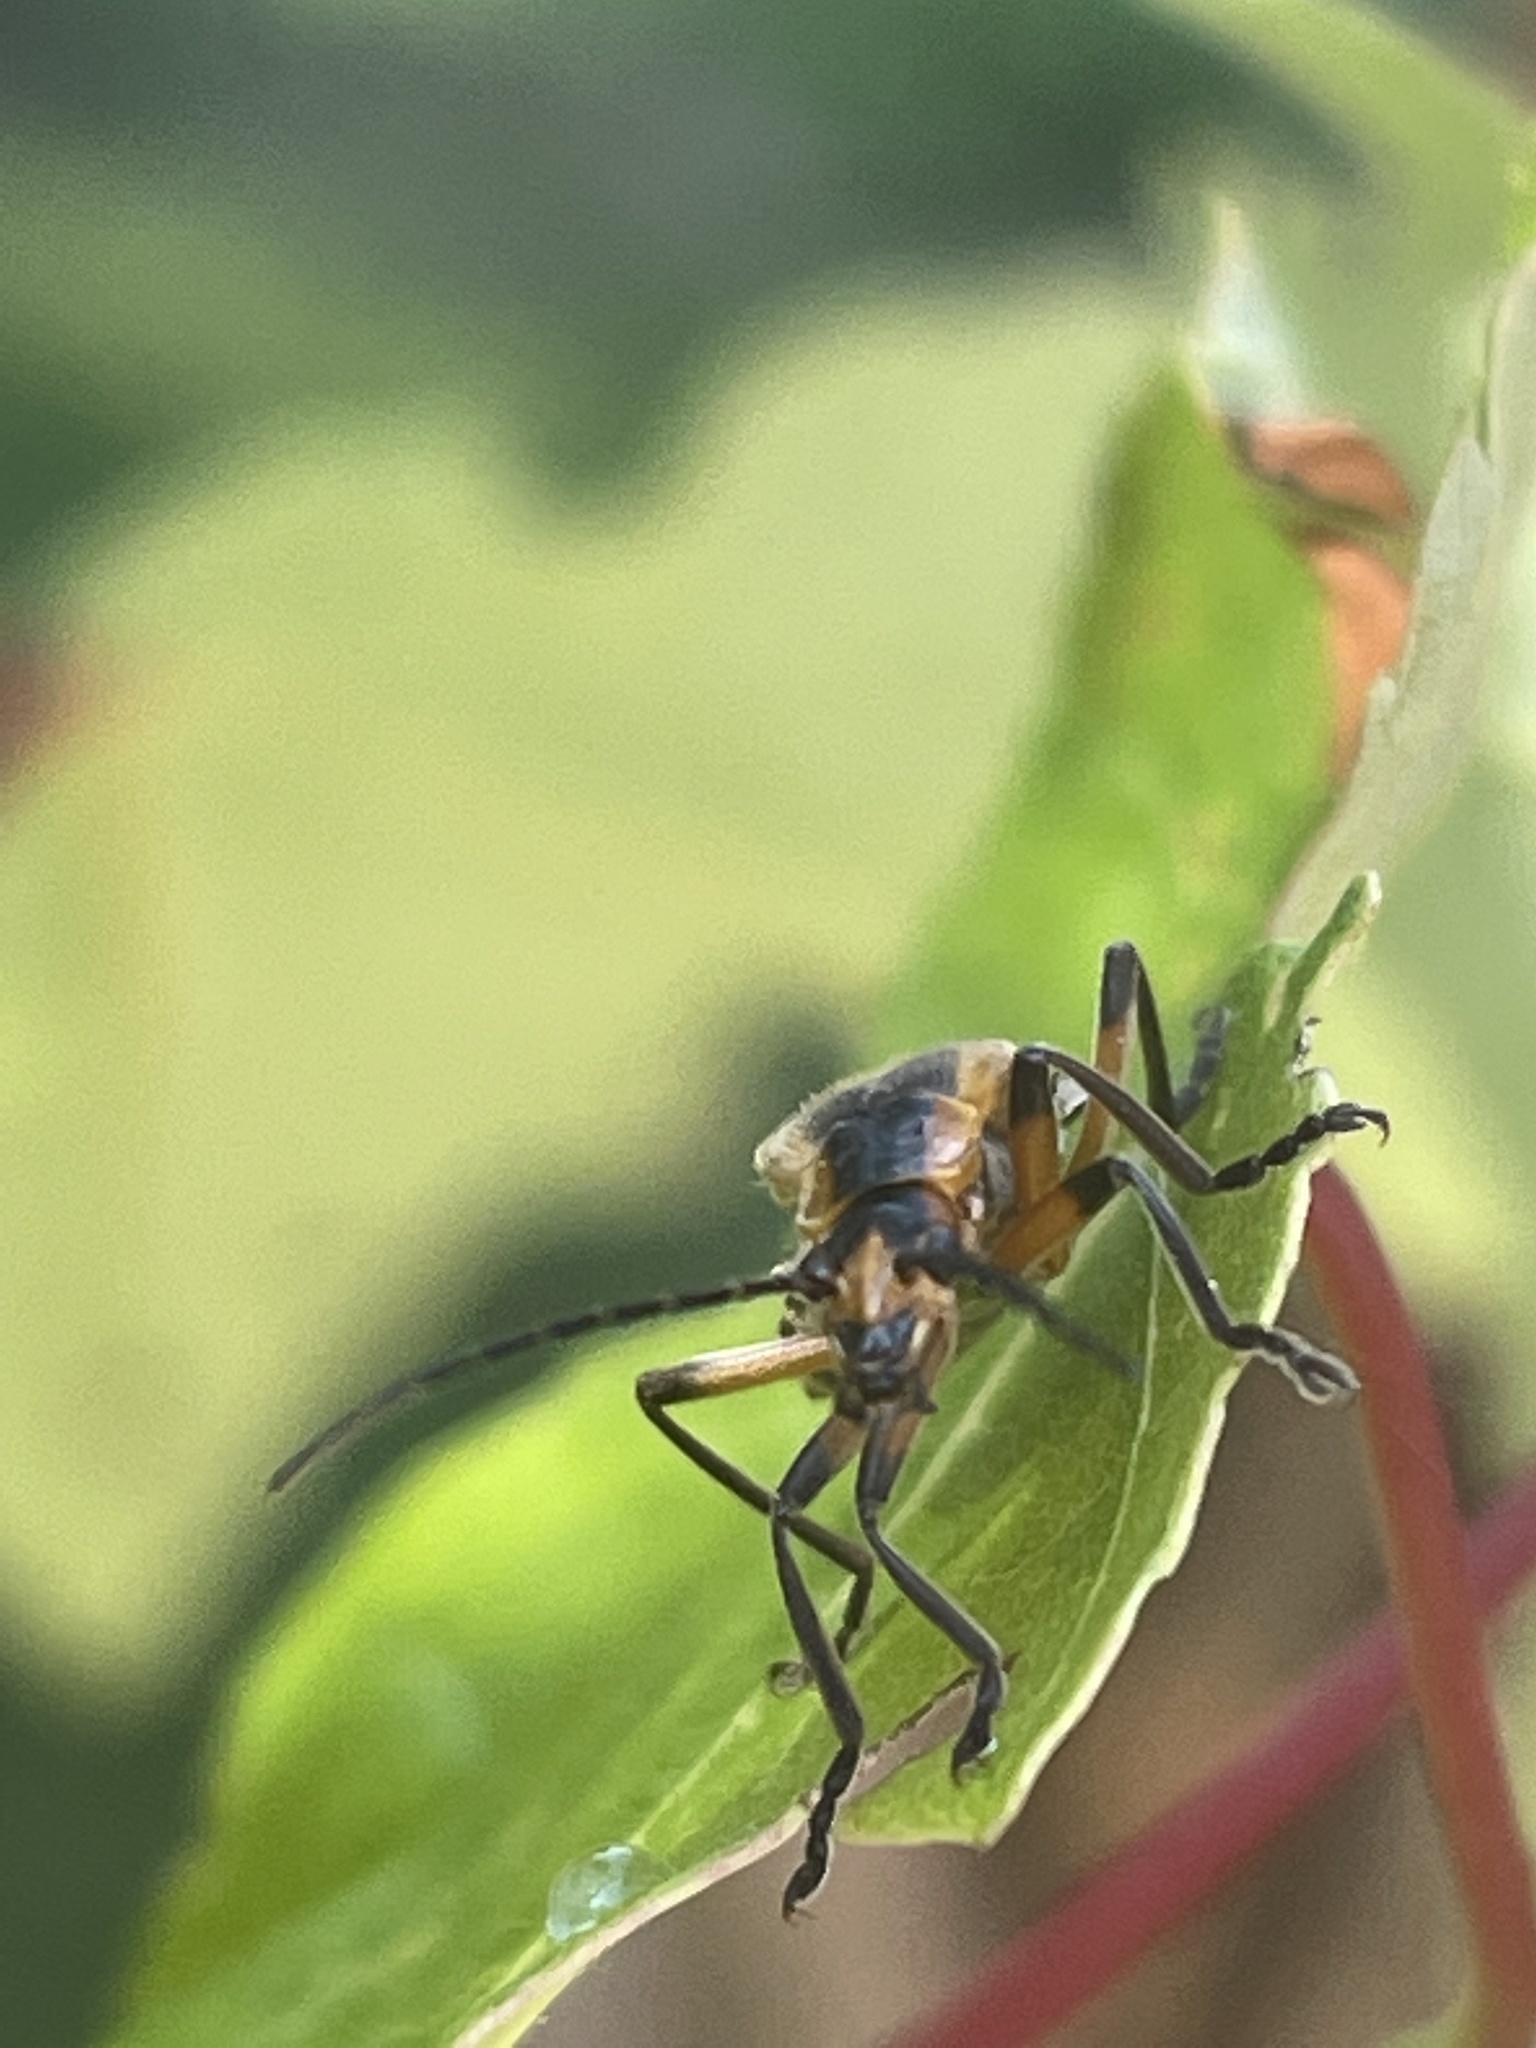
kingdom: Animalia
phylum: Arthropoda
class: Insecta
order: Coleoptera
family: Cantharidae
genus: Chauliognathus
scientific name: Chauliognathus marginatus
